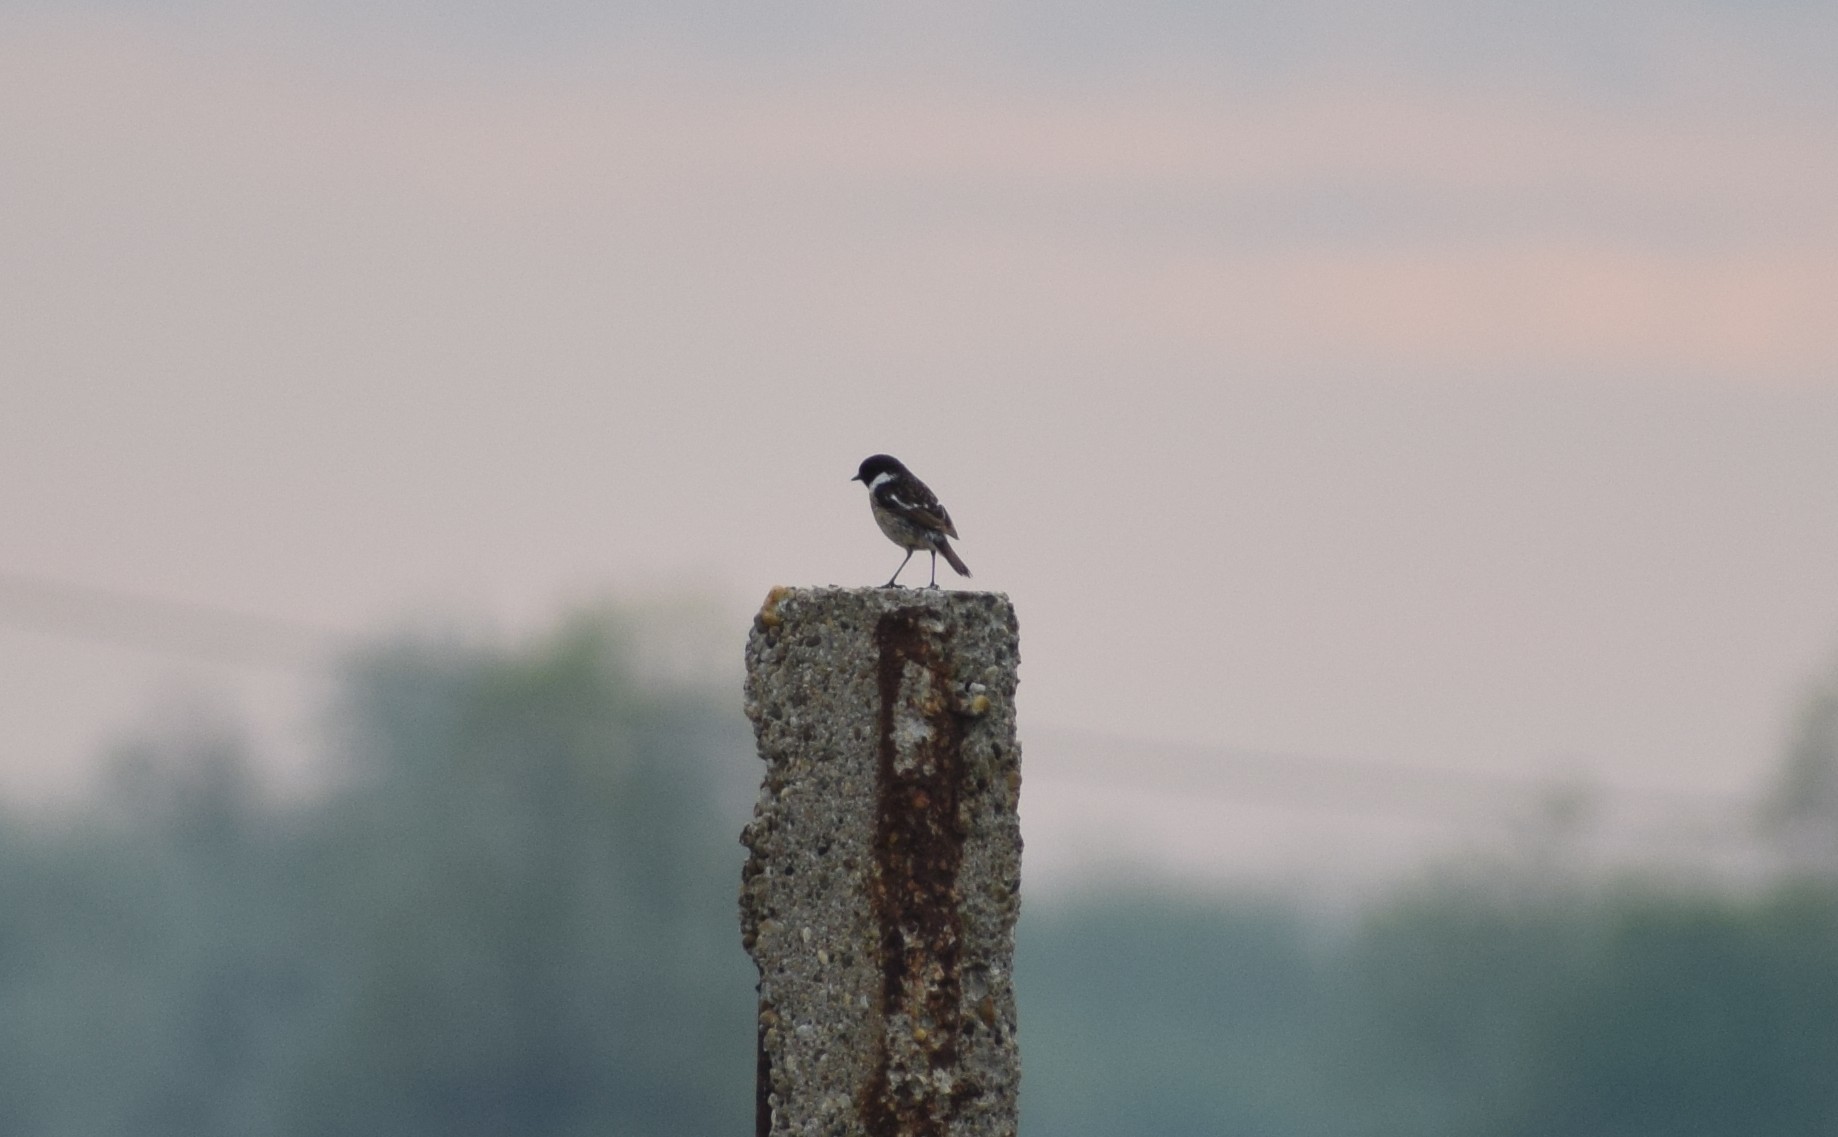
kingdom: Animalia
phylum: Chordata
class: Aves
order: Passeriformes
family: Muscicapidae
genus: Saxicola
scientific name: Saxicola rubicola
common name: European stonechat
